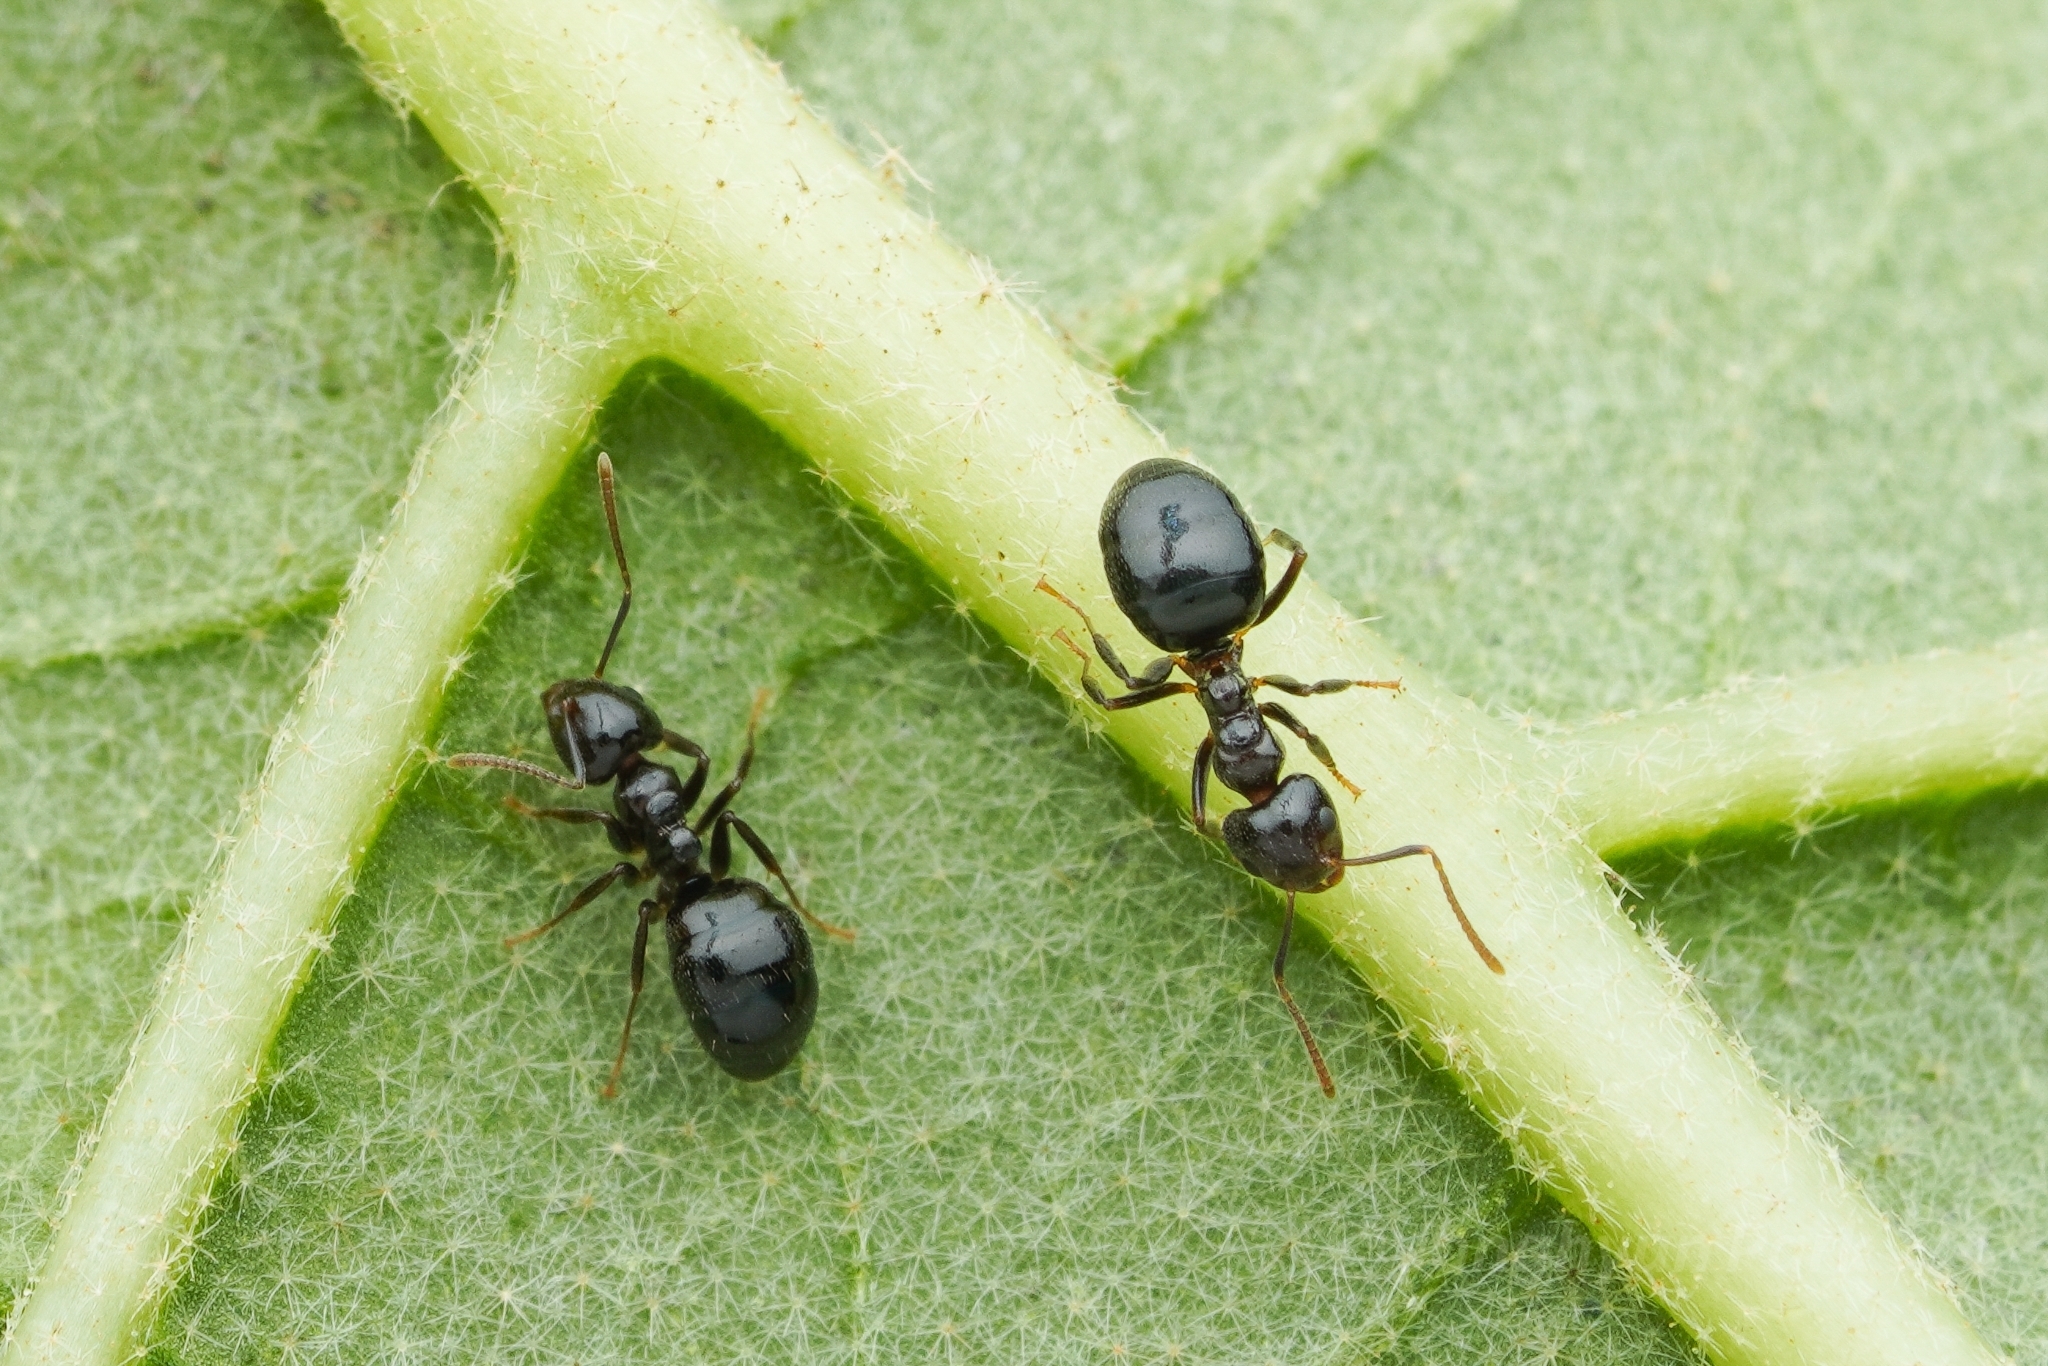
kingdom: Animalia
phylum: Arthropoda
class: Insecta
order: Hymenoptera
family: Formicidae
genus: Dolichoderus
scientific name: Dolichoderus debilis
